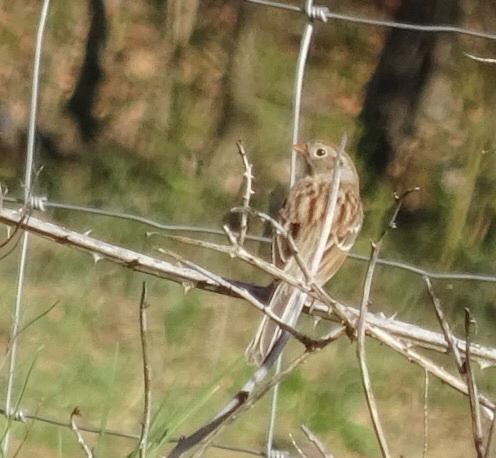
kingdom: Animalia
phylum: Chordata
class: Aves
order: Passeriformes
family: Passerellidae
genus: Spizella
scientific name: Spizella pusilla
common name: Field sparrow
